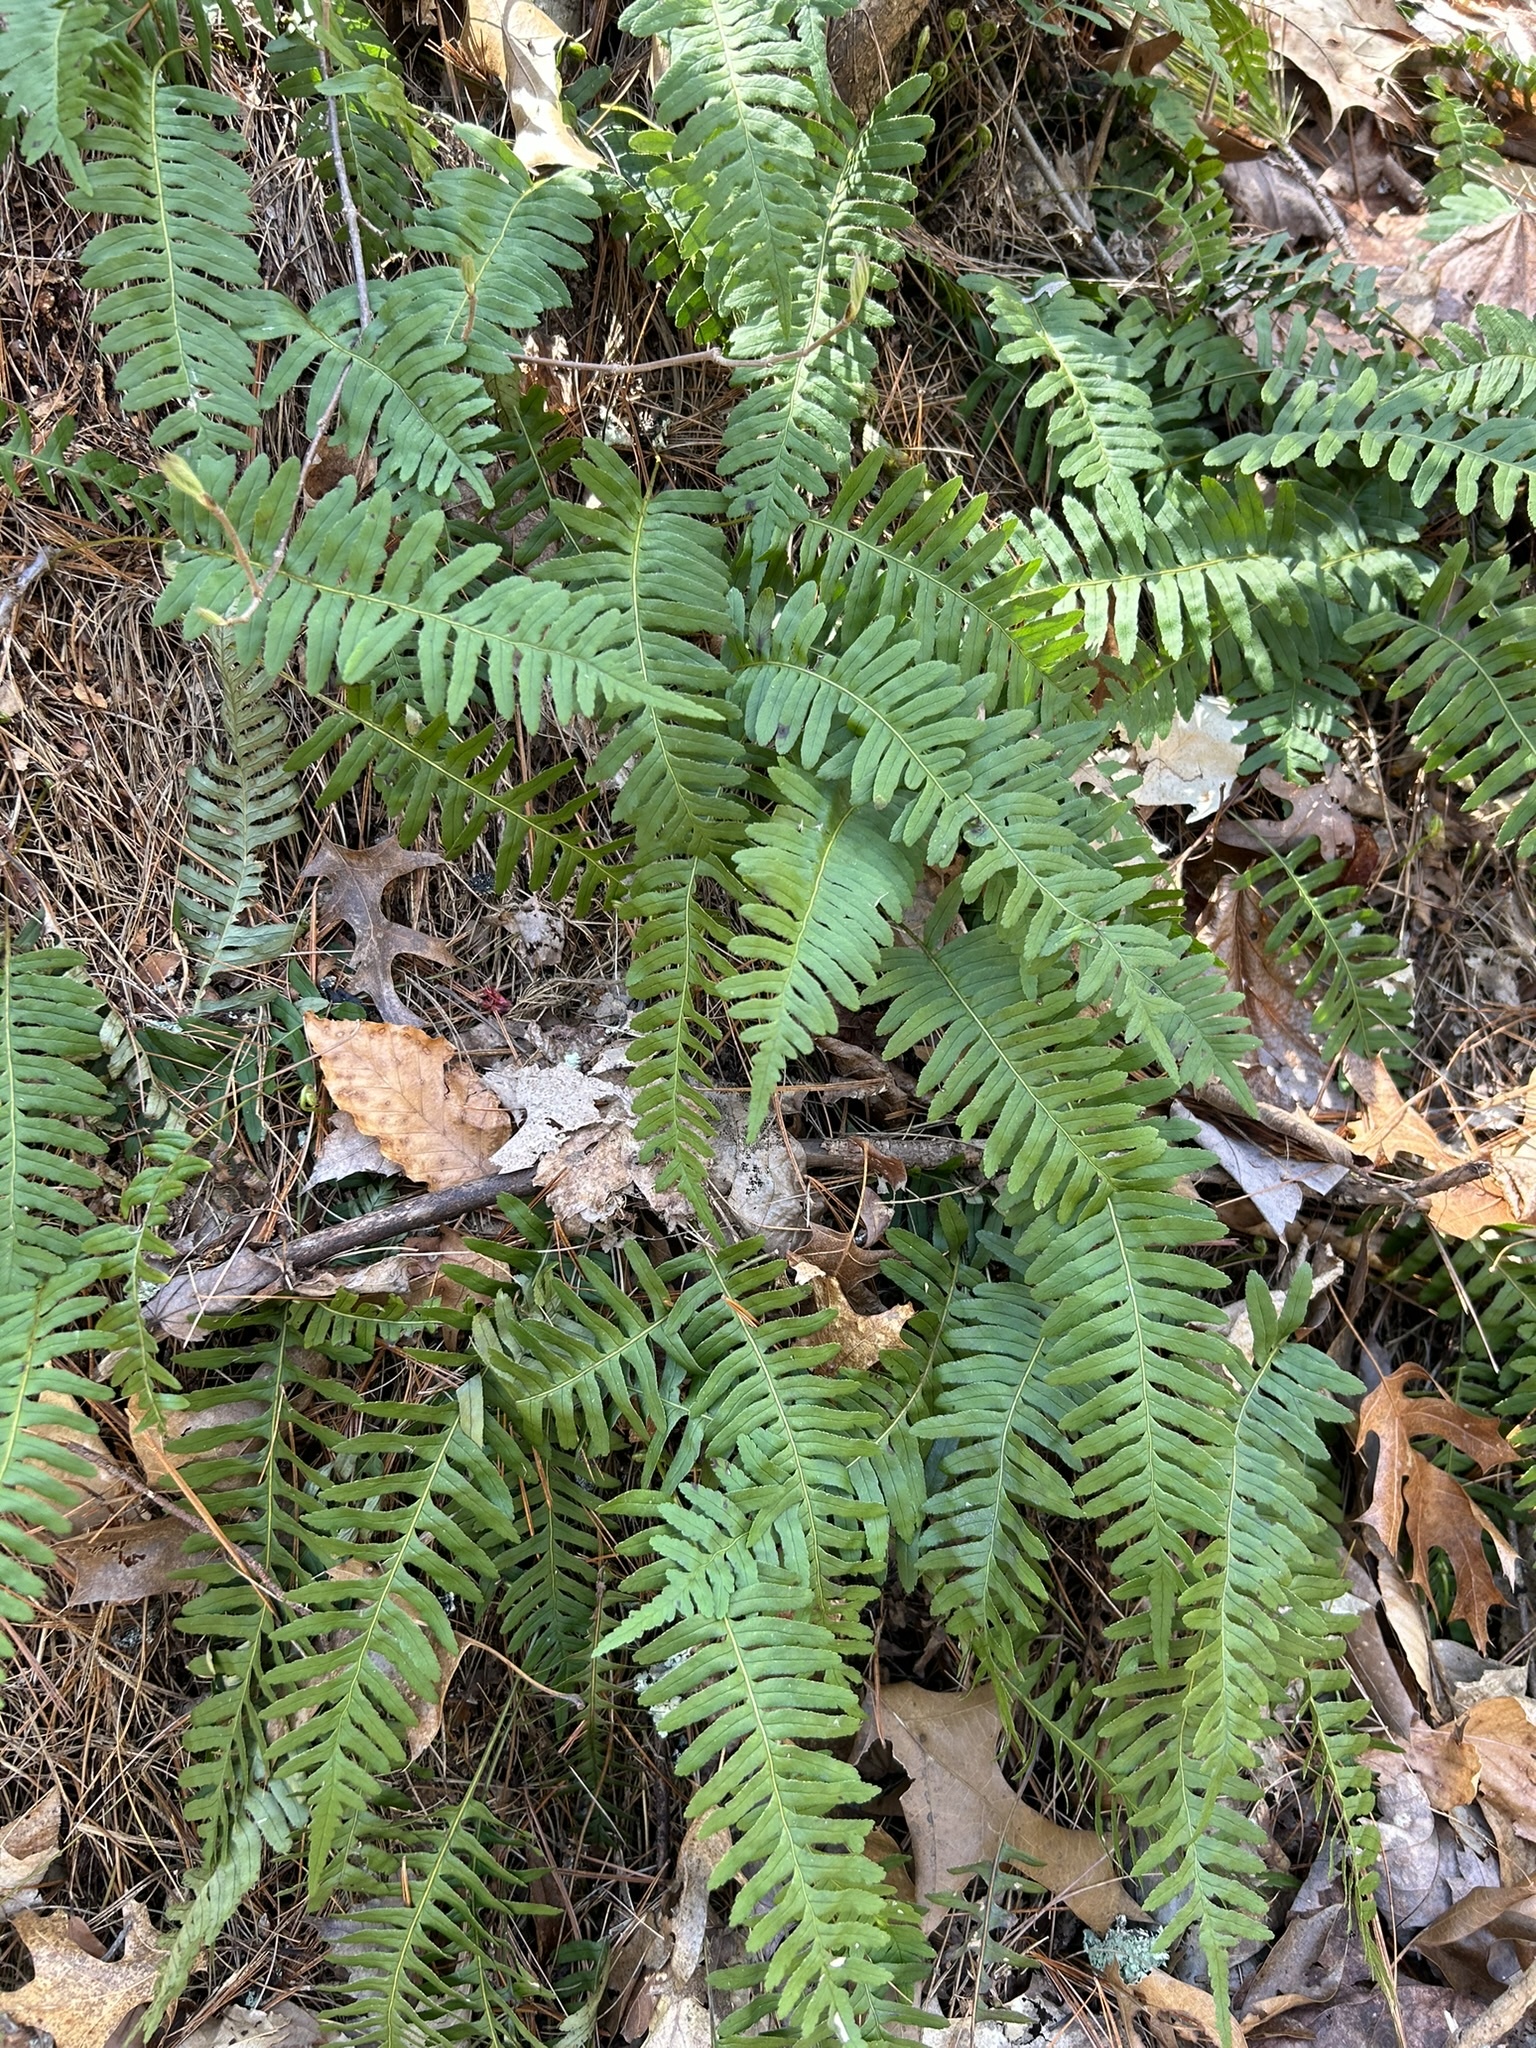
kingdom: Plantae
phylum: Tracheophyta
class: Polypodiopsida
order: Polypodiales
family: Polypodiaceae
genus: Polypodium
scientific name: Polypodium virginianum
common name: American wall fern
